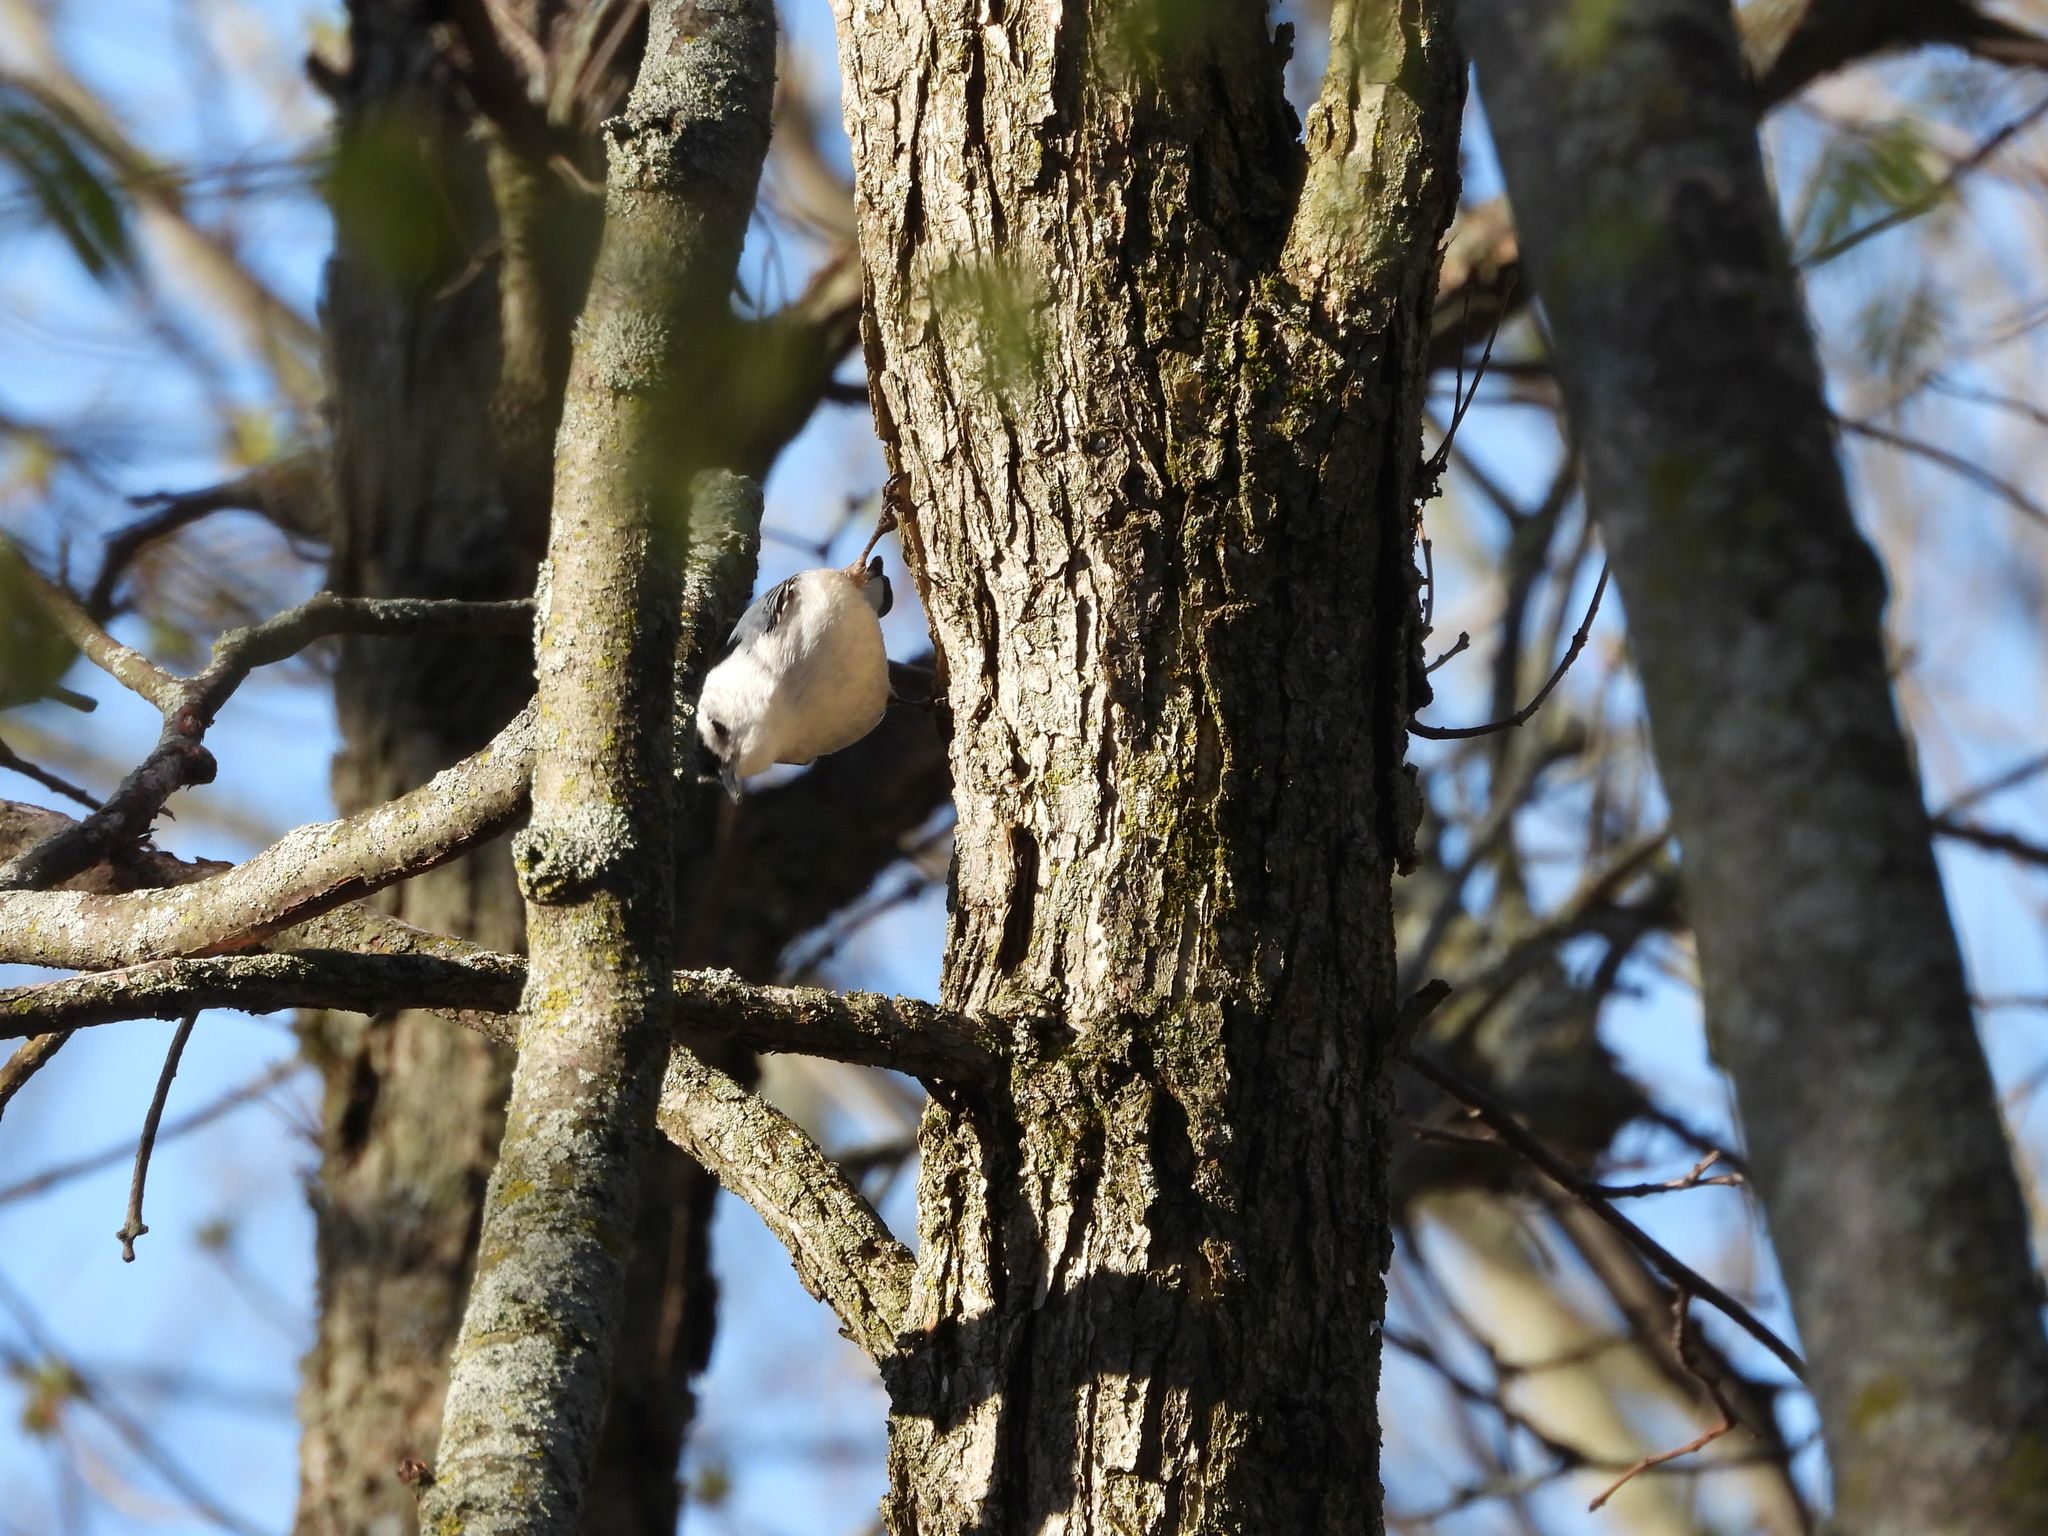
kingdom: Animalia
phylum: Chordata
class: Aves
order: Passeriformes
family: Sittidae
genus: Sitta
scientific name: Sitta carolinensis
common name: White-breasted nuthatch
